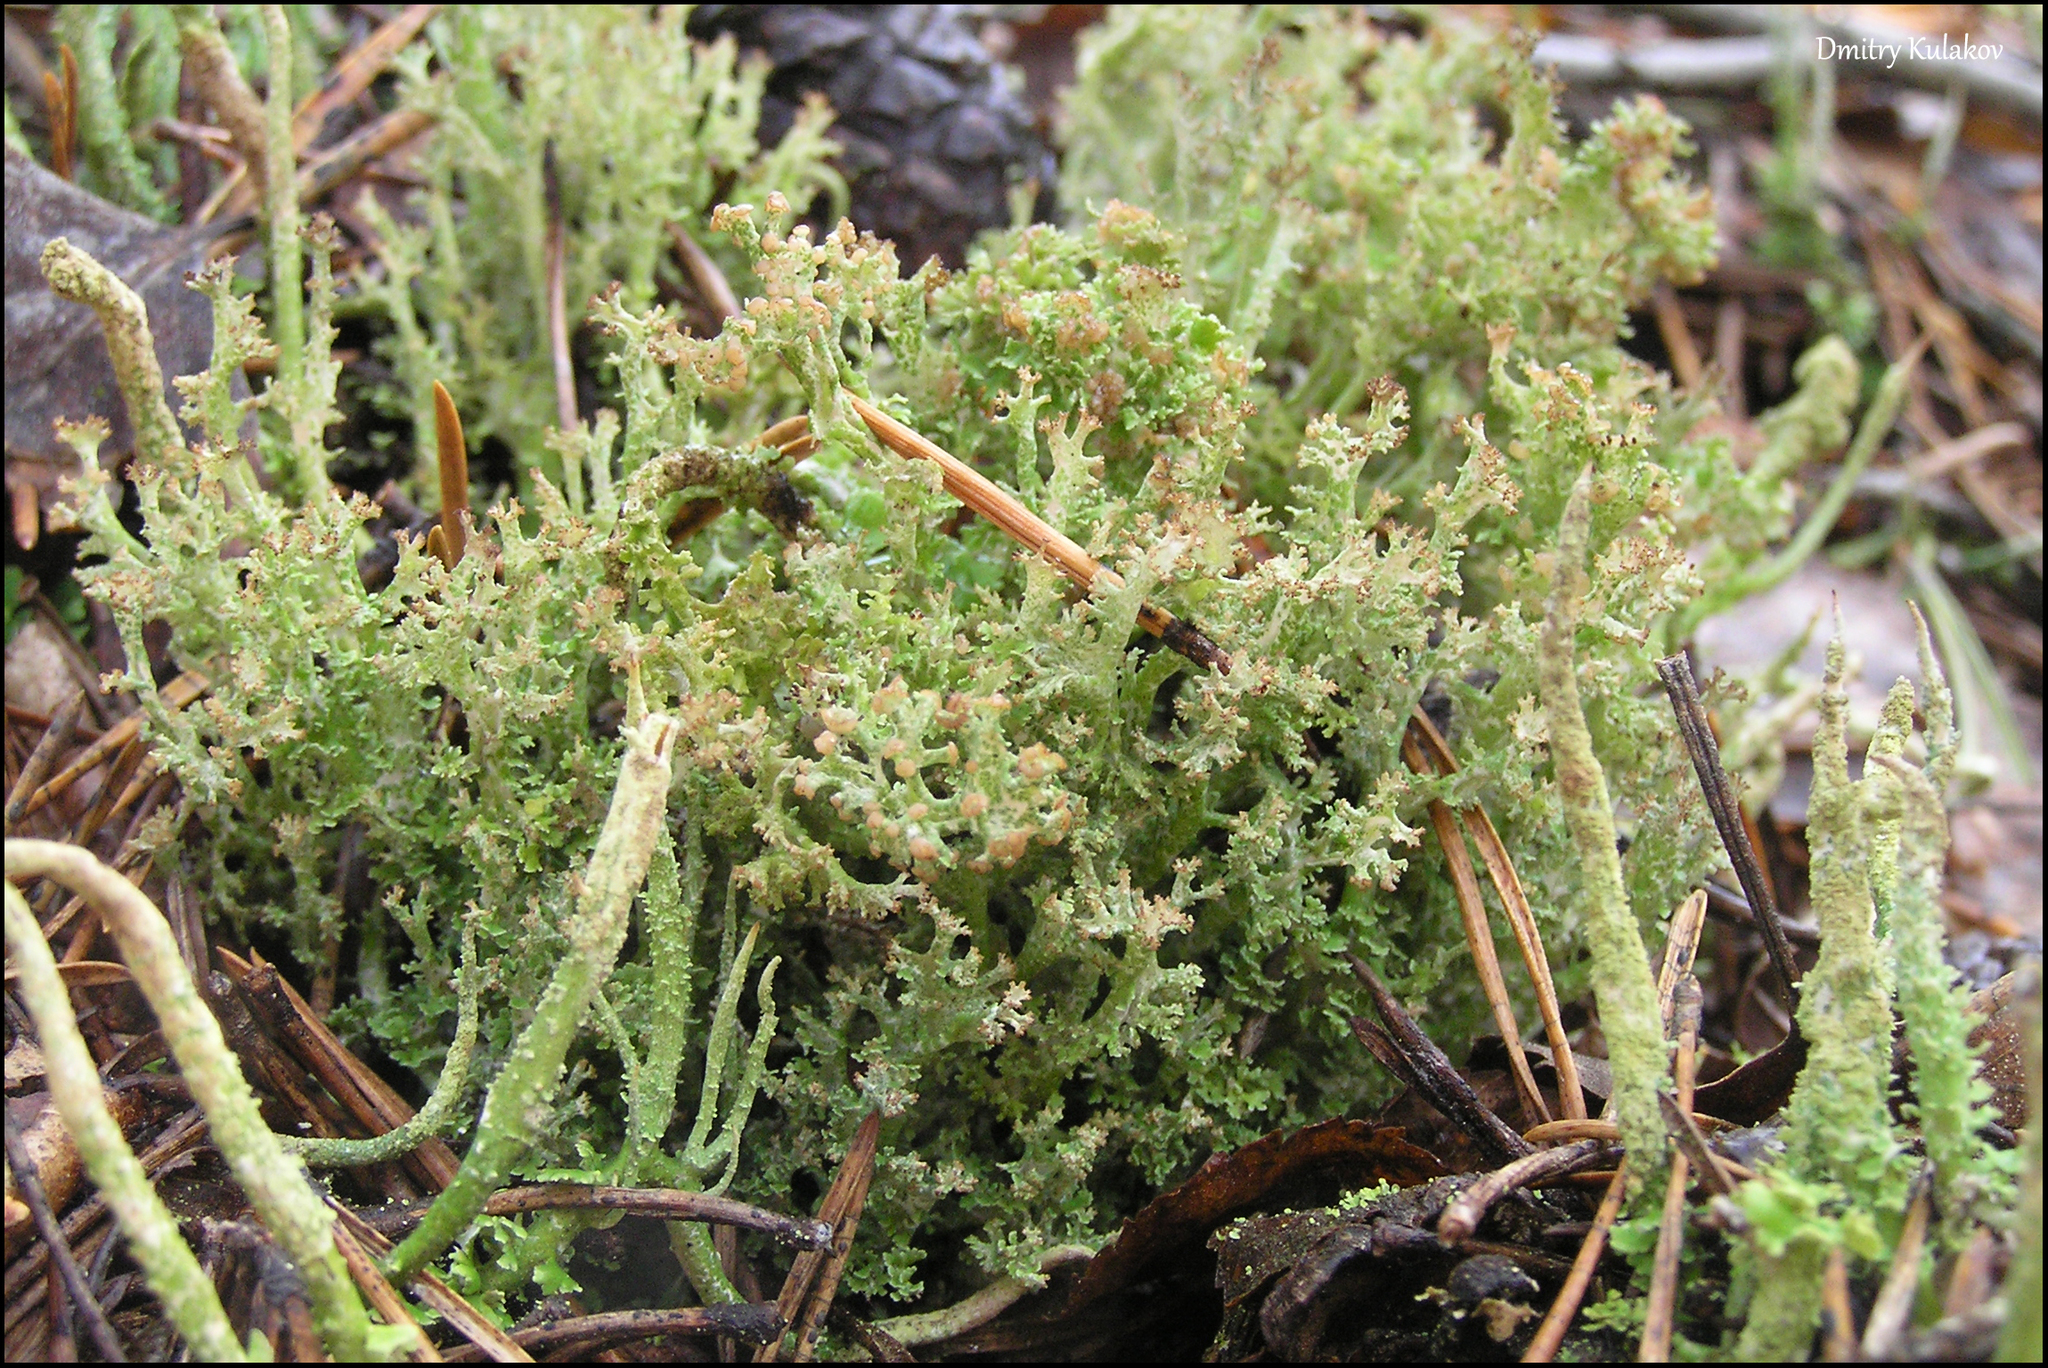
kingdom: Fungi
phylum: Ascomycota
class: Lecanoromycetes
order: Lecanorales
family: Cladoniaceae
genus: Cladonia
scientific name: Cladonia crispata
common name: Organ-pipe lichen
